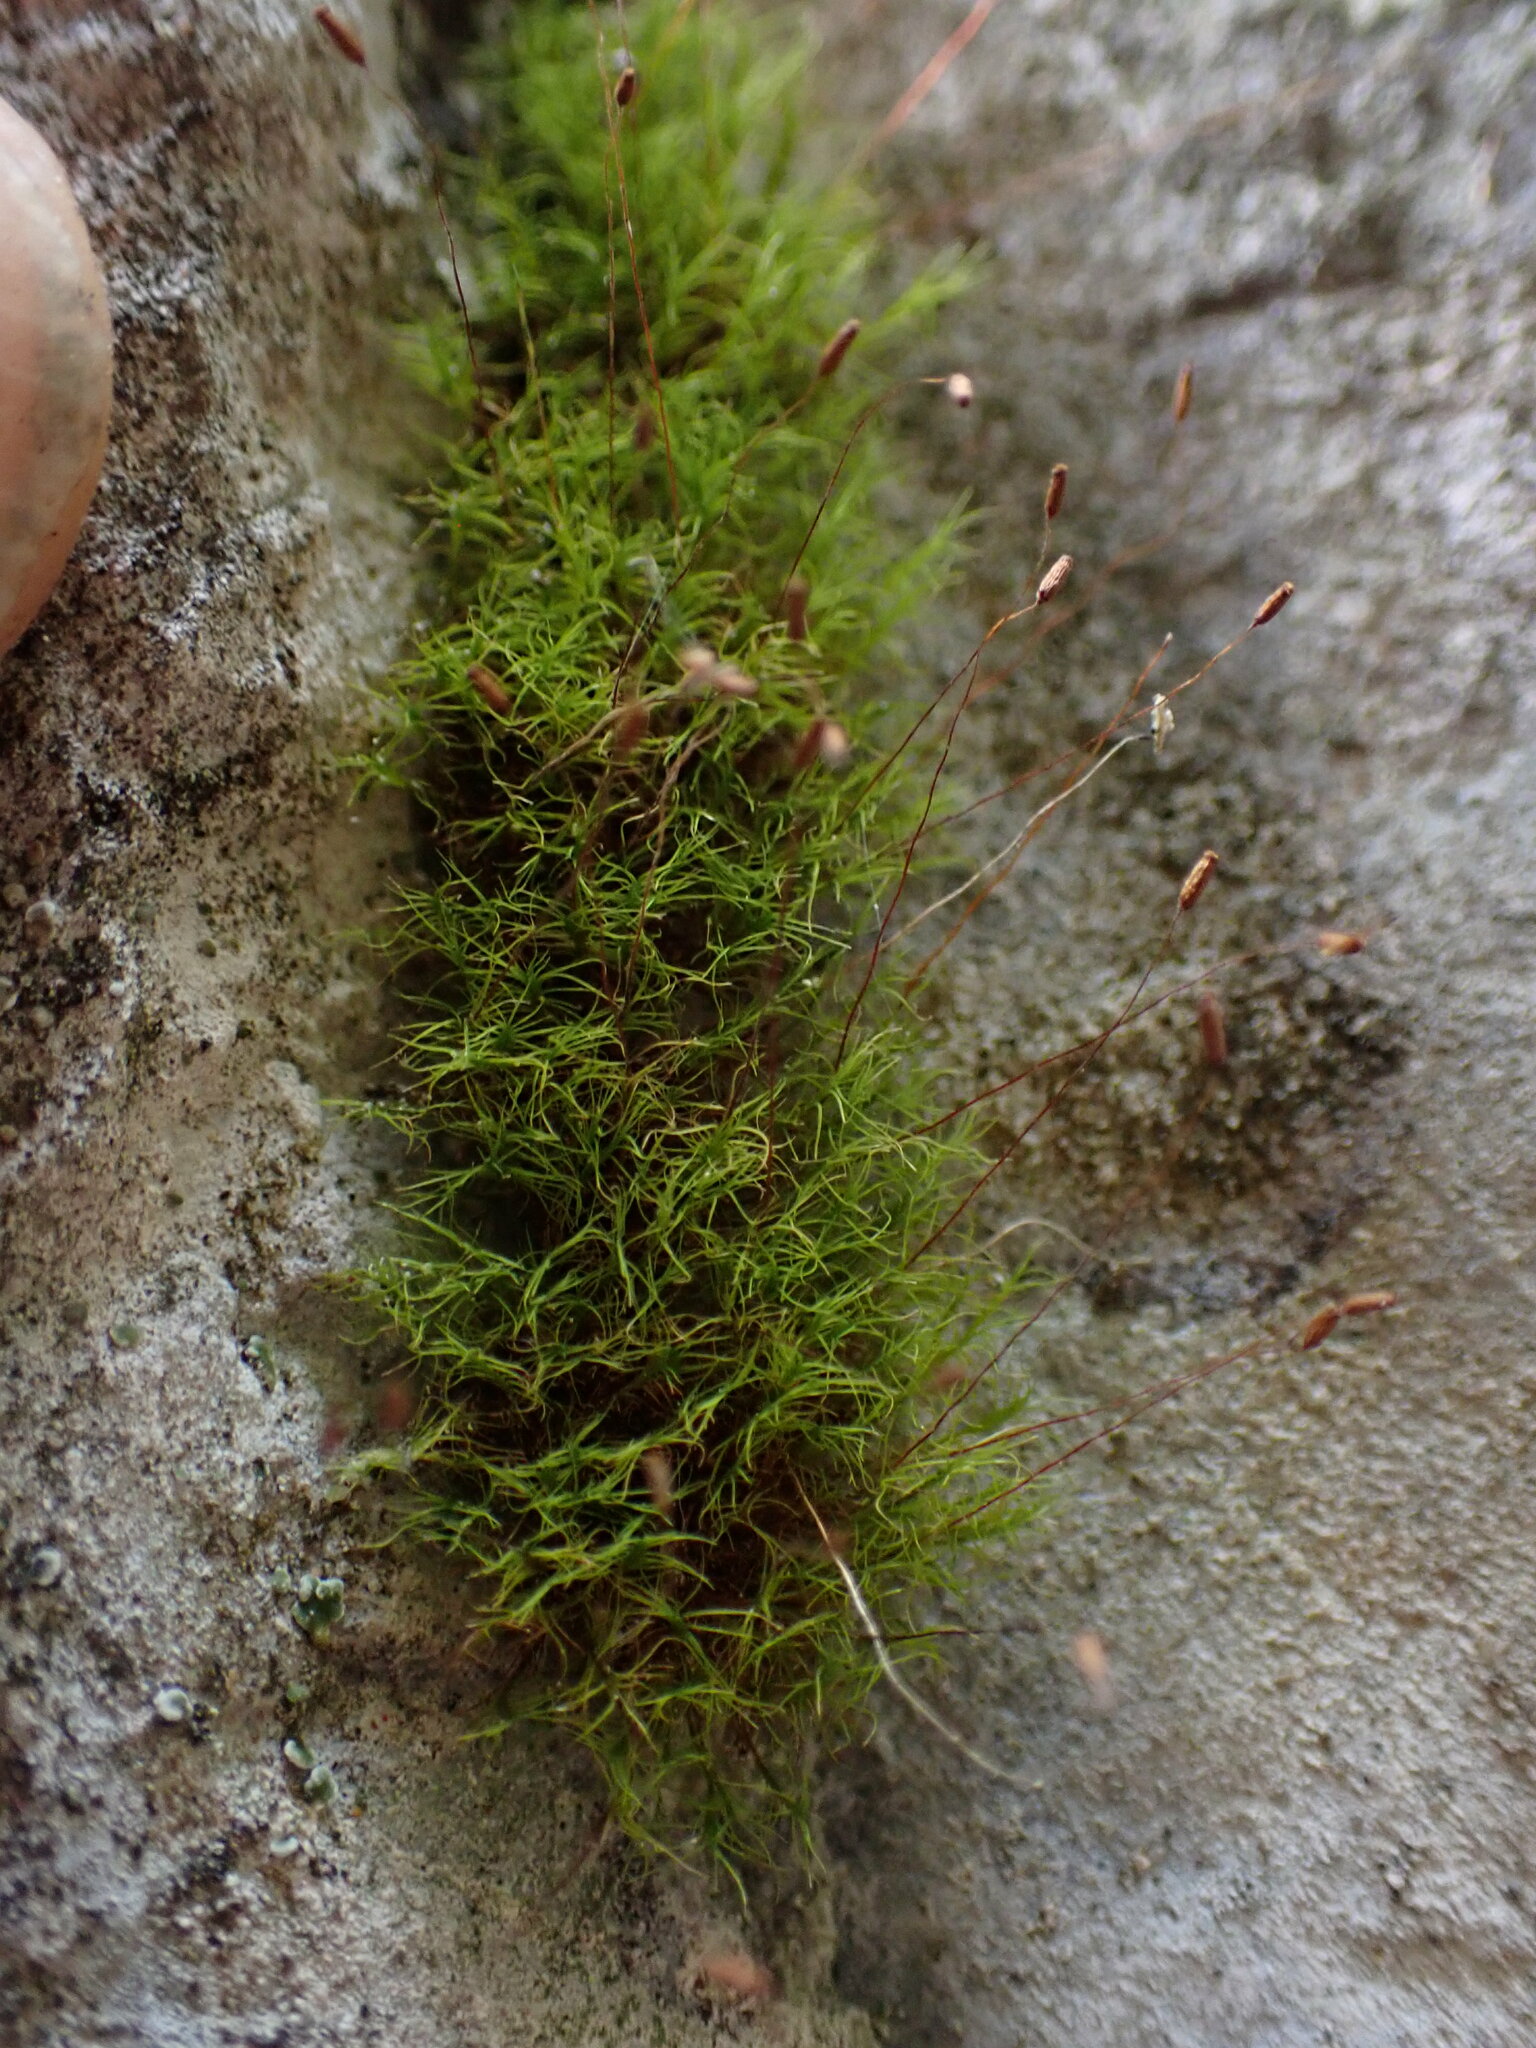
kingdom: Plantae
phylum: Bryophyta
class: Bryopsida
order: Scouleriales
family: Distichiaceae
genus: Distichium
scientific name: Distichium capillaceum
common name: Erect-fruited iris moss
